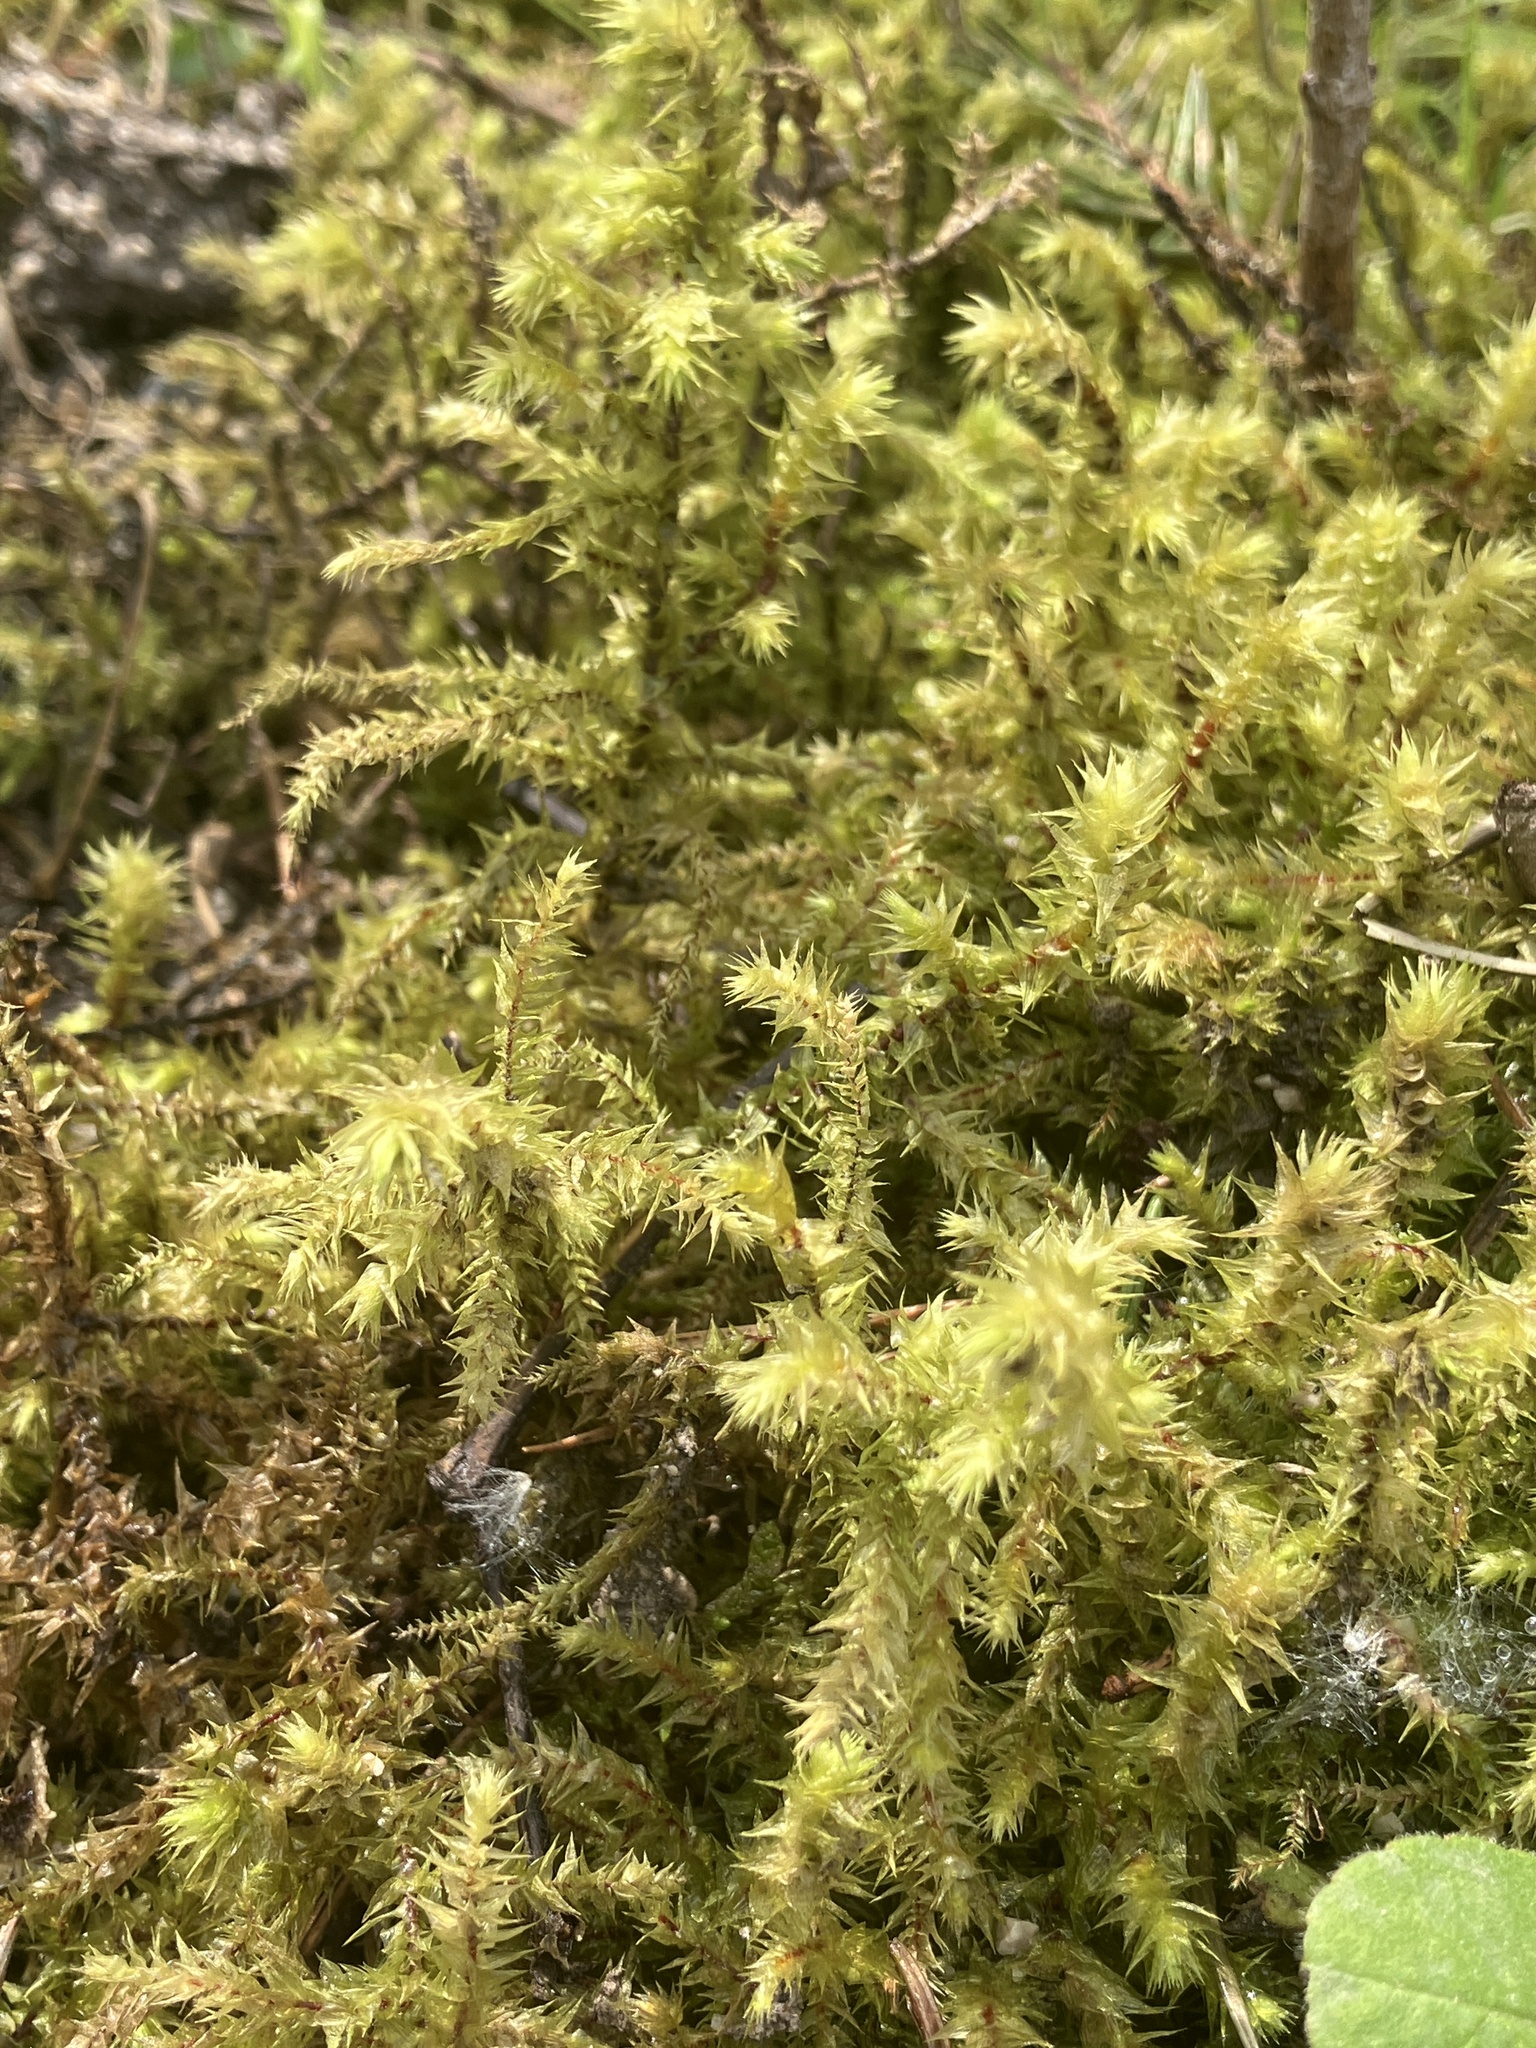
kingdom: Plantae
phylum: Bryophyta
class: Bryopsida
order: Hypnales
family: Hylocomiaceae
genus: Hylocomiadelphus
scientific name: Hylocomiadelphus triquetrus
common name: Rough goose neck moss
